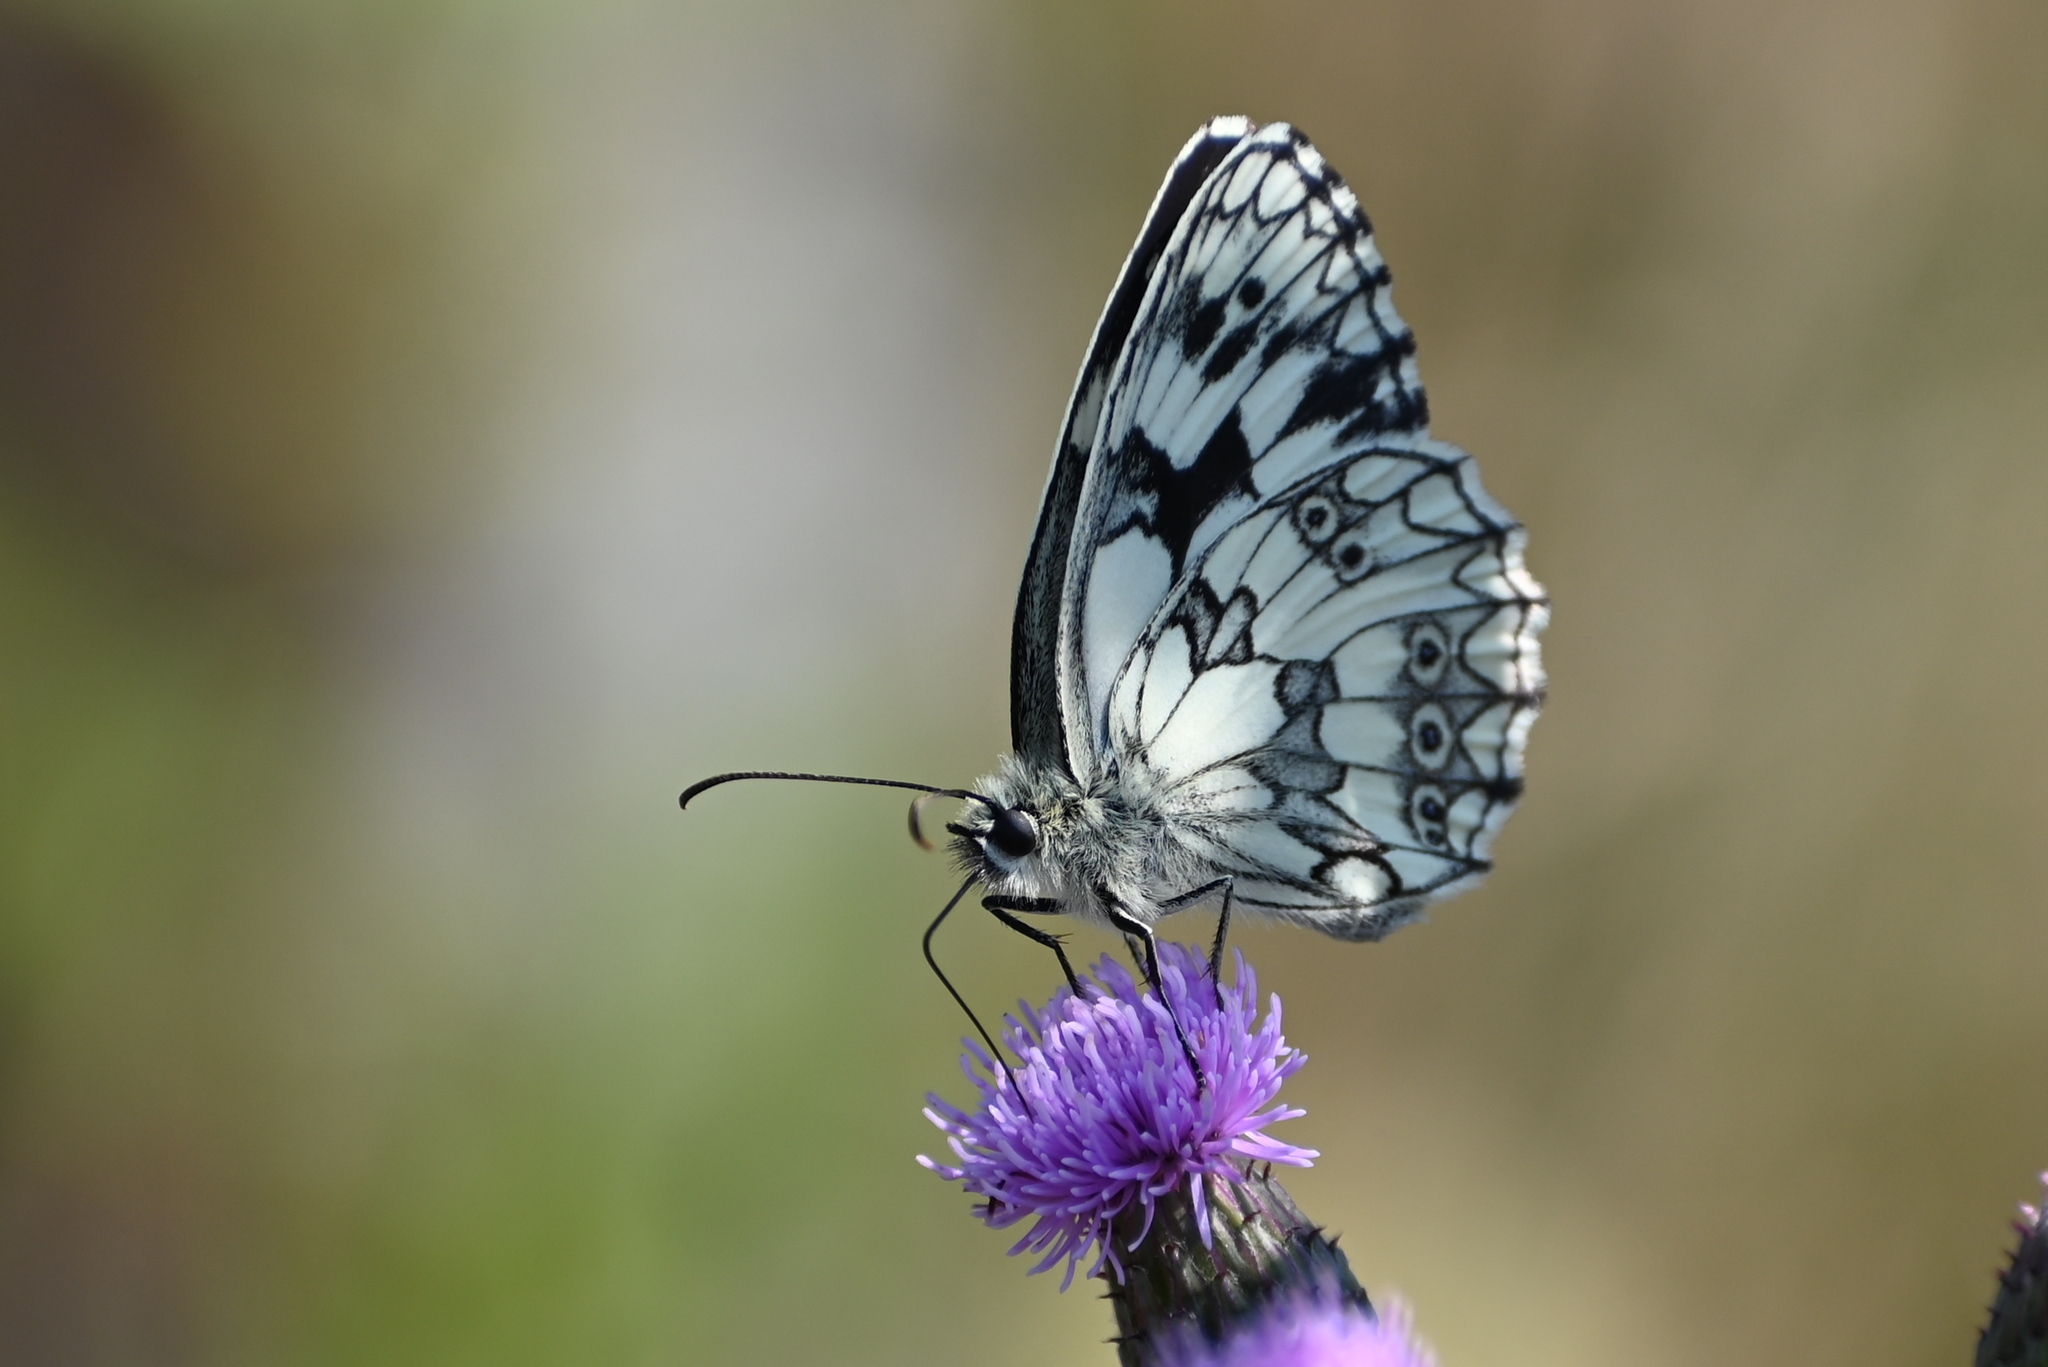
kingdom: Animalia
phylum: Arthropoda
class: Insecta
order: Lepidoptera
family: Nymphalidae
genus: Melanargia
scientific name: Melanargia galathea
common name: Marbled white
